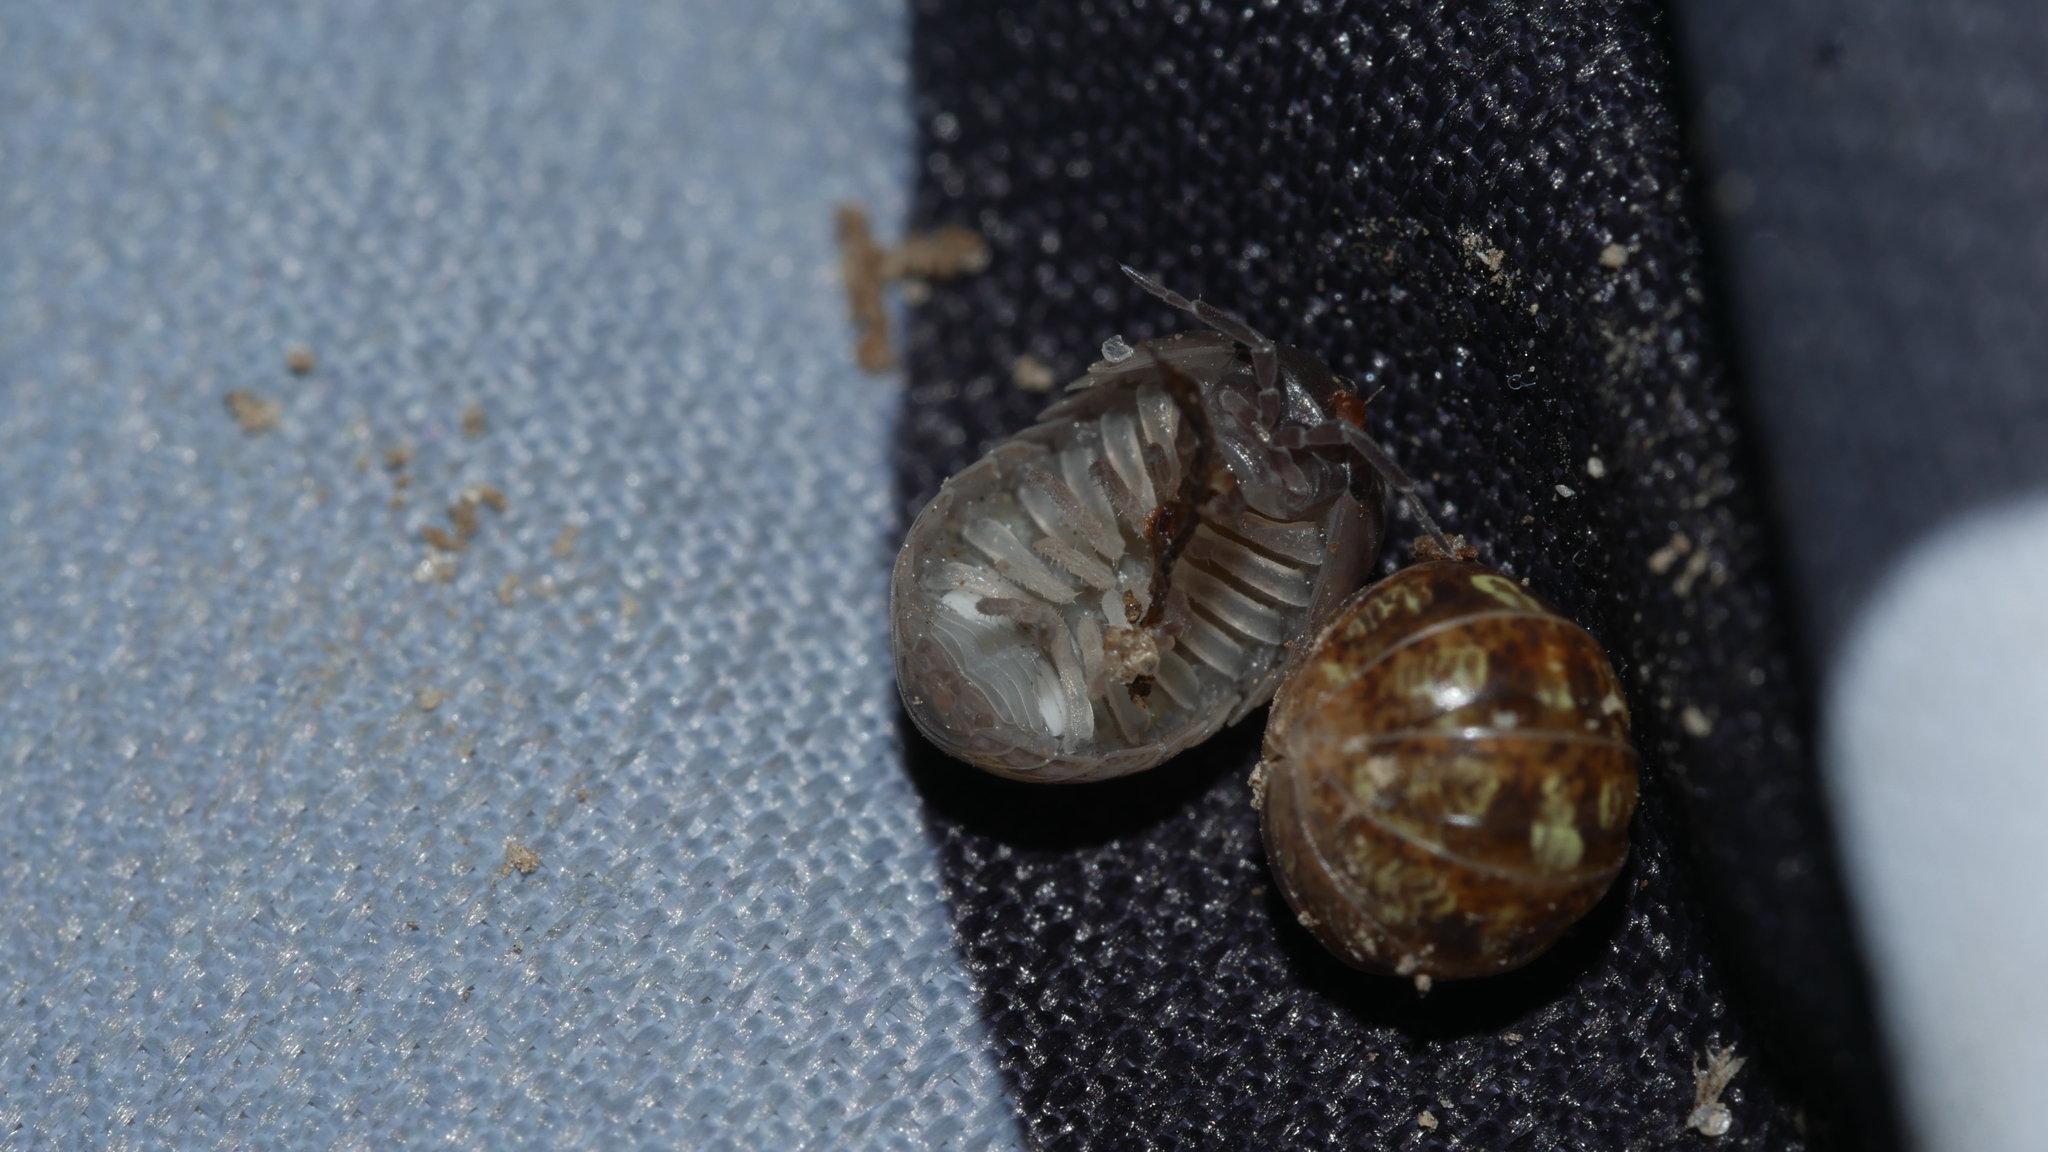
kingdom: Animalia
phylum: Arthropoda
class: Malacostraca
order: Isopoda
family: Armadillidiidae
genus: Armadillidium
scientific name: Armadillidium vulgare
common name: Common pill woodlouse
